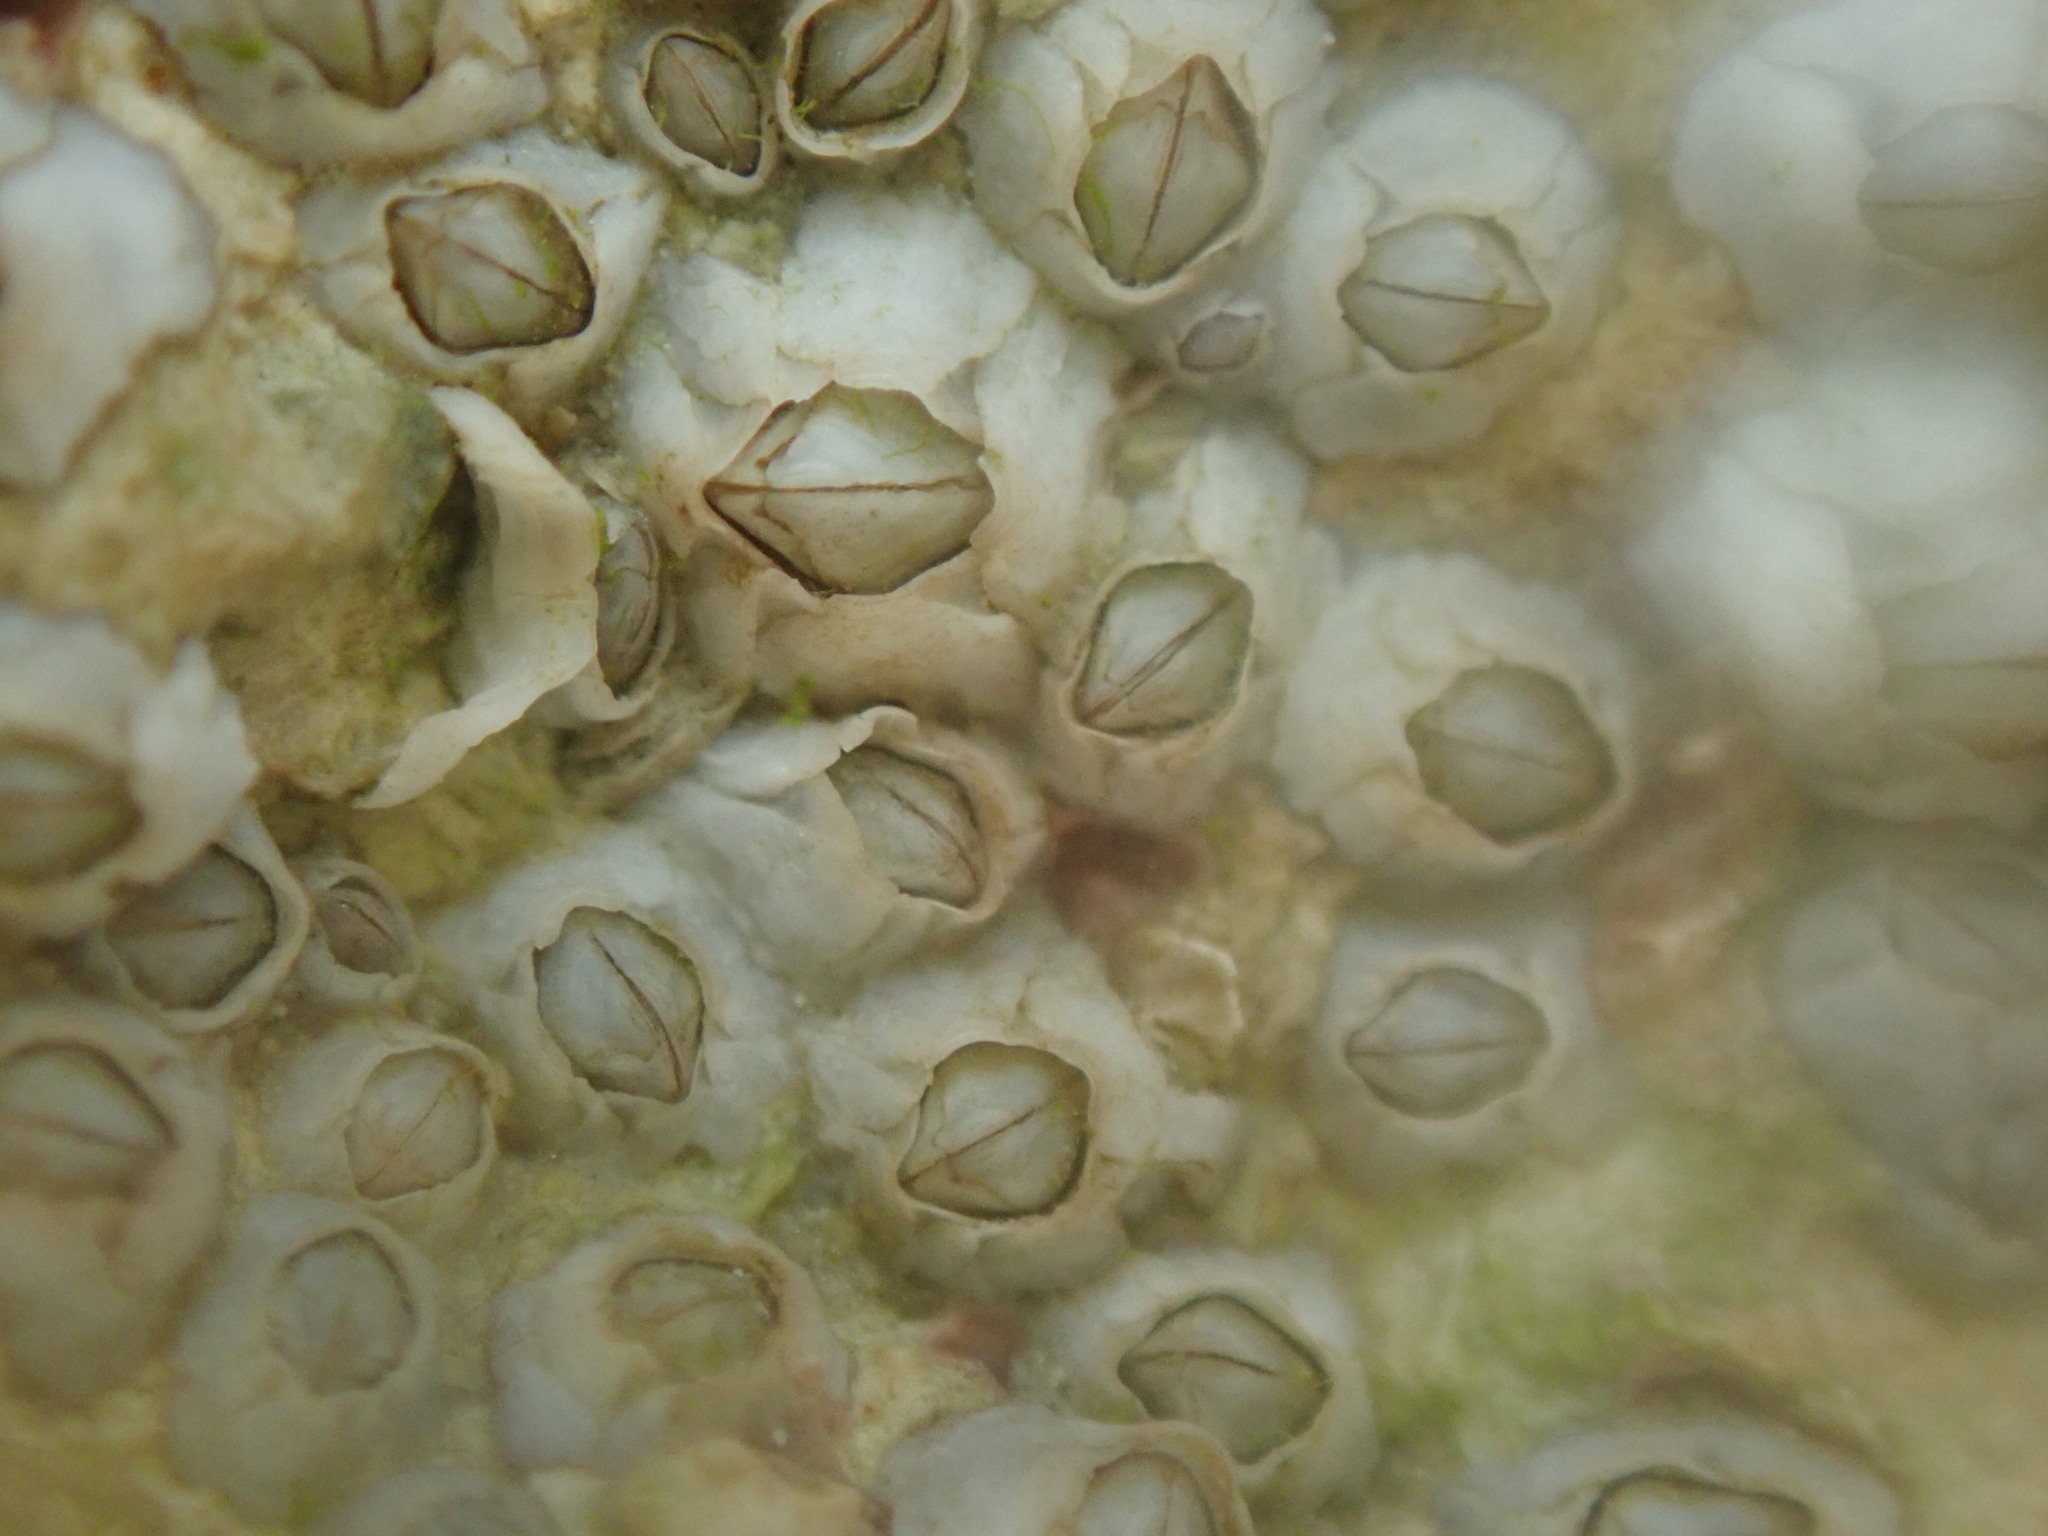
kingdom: Animalia
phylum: Arthropoda
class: Maxillopoda
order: Sessilia
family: Archaeobalanidae
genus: Semibalanus
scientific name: Semibalanus balanoides
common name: Acorn barnacle
